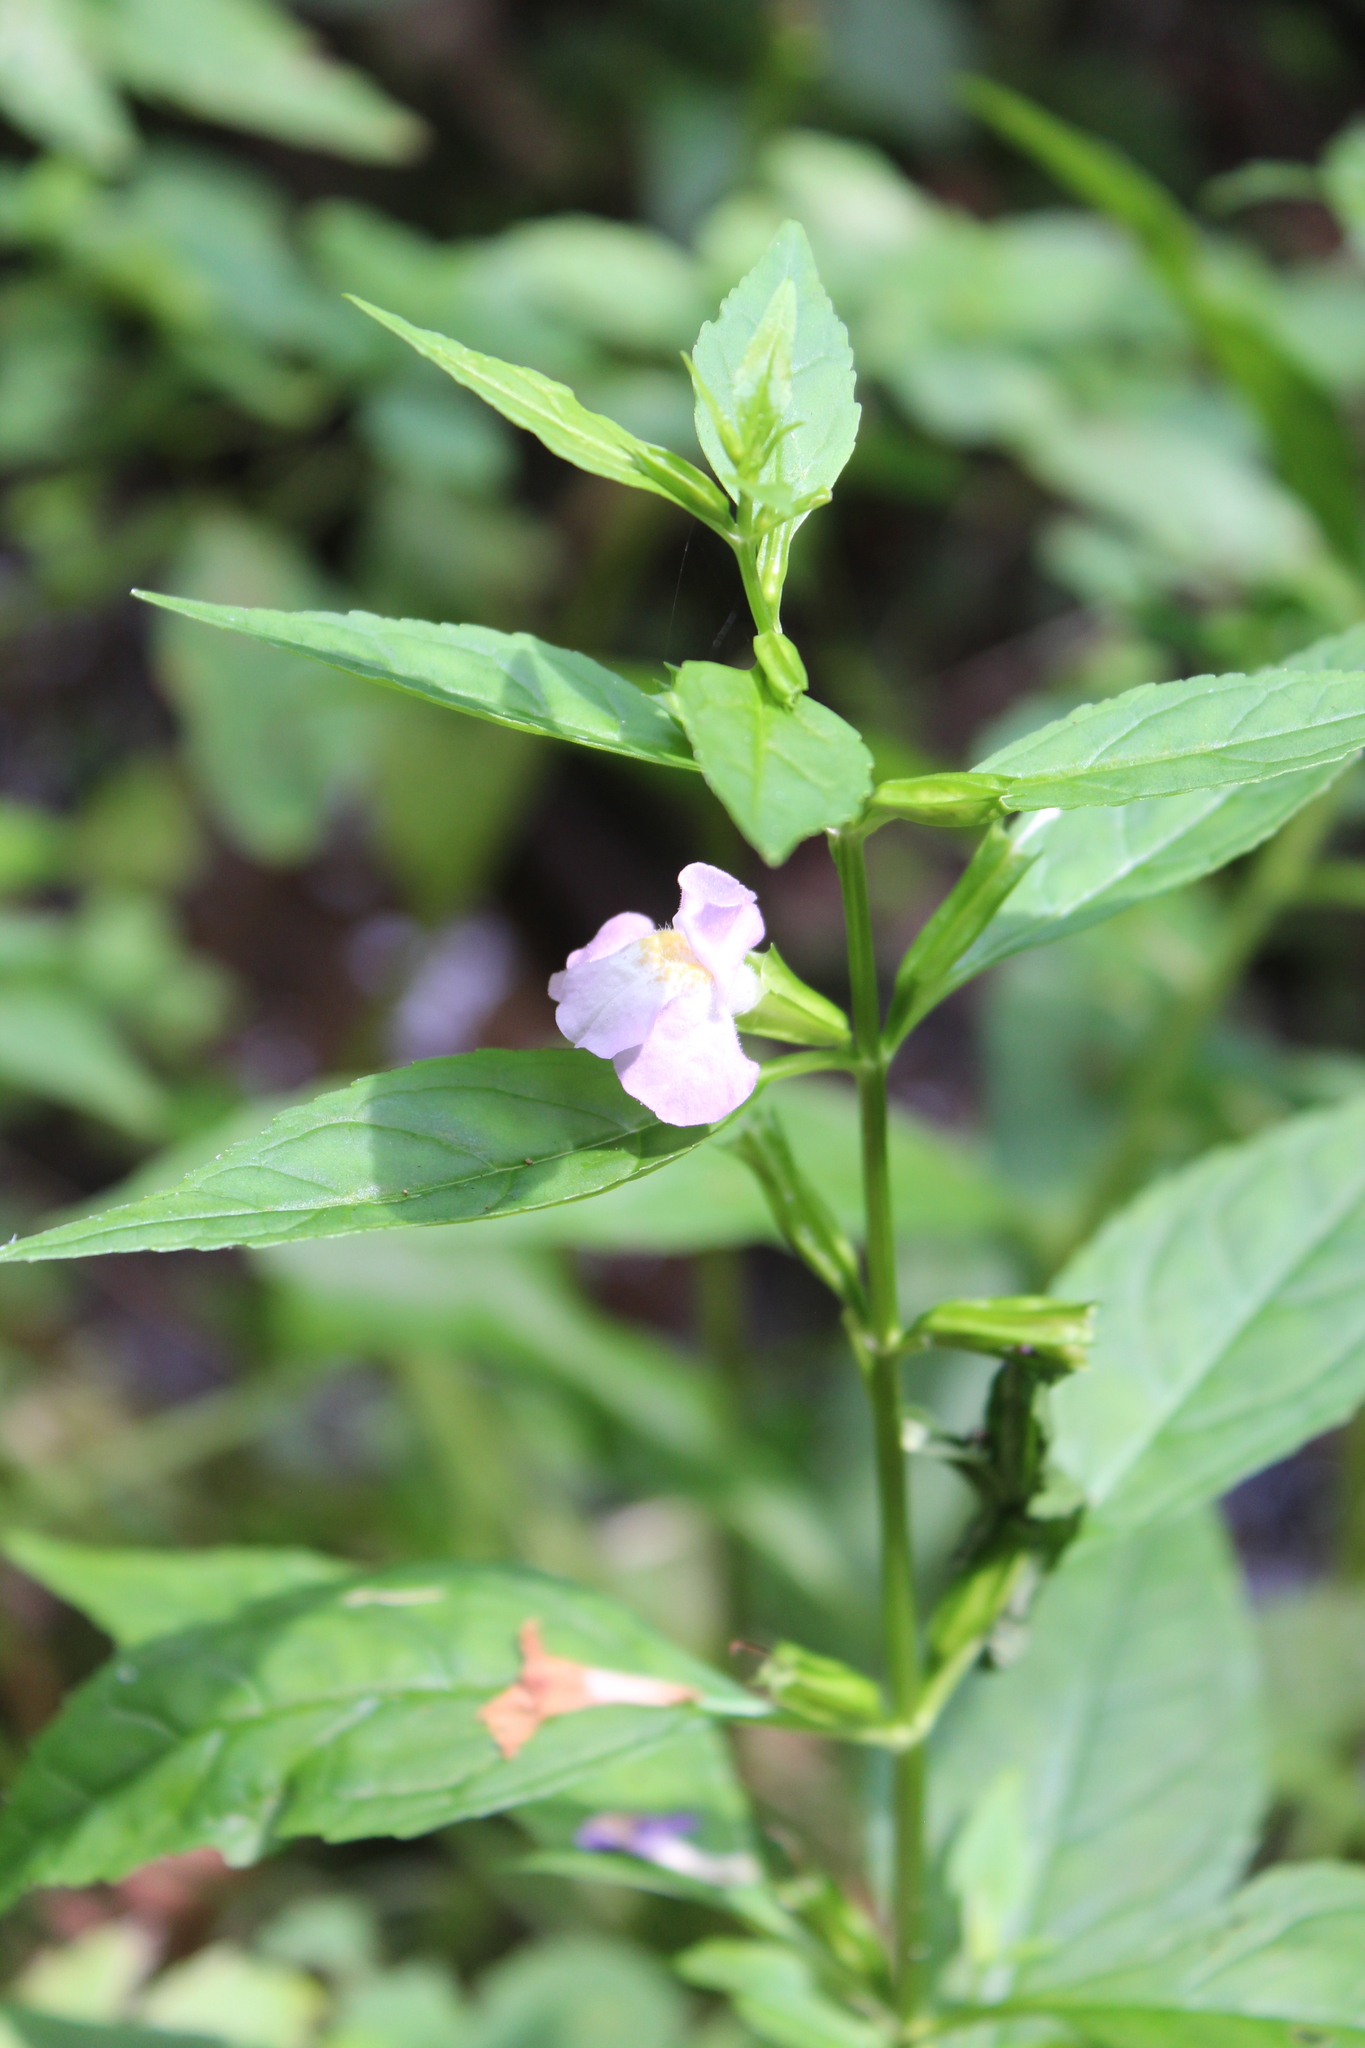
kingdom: Plantae
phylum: Tracheophyta
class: Magnoliopsida
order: Lamiales
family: Phrymaceae
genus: Mimulus
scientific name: Mimulus alatus
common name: Sharp-wing monkey-flower
